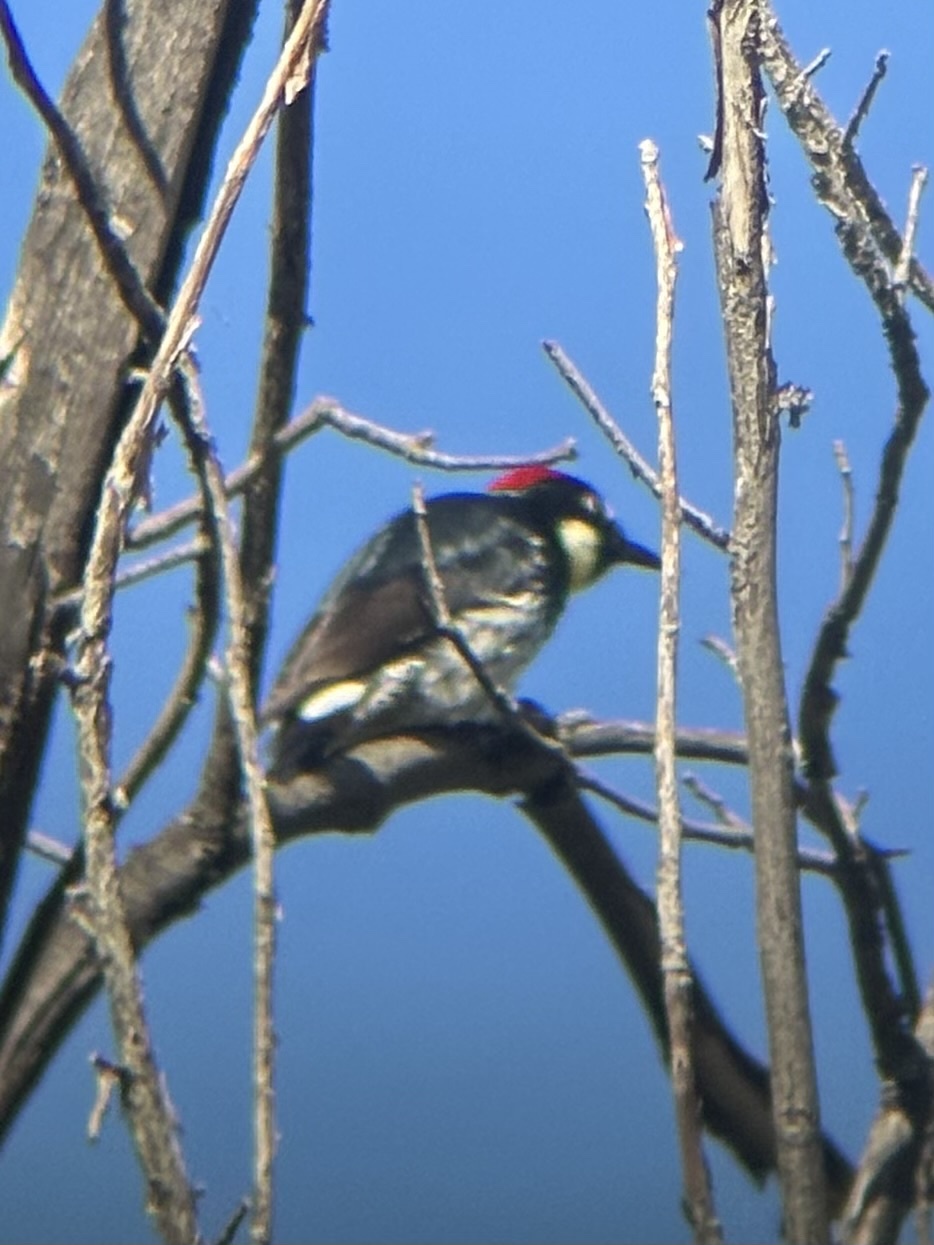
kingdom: Animalia
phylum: Chordata
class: Aves
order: Piciformes
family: Picidae
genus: Melanerpes
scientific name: Melanerpes formicivorus
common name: Acorn woodpecker
